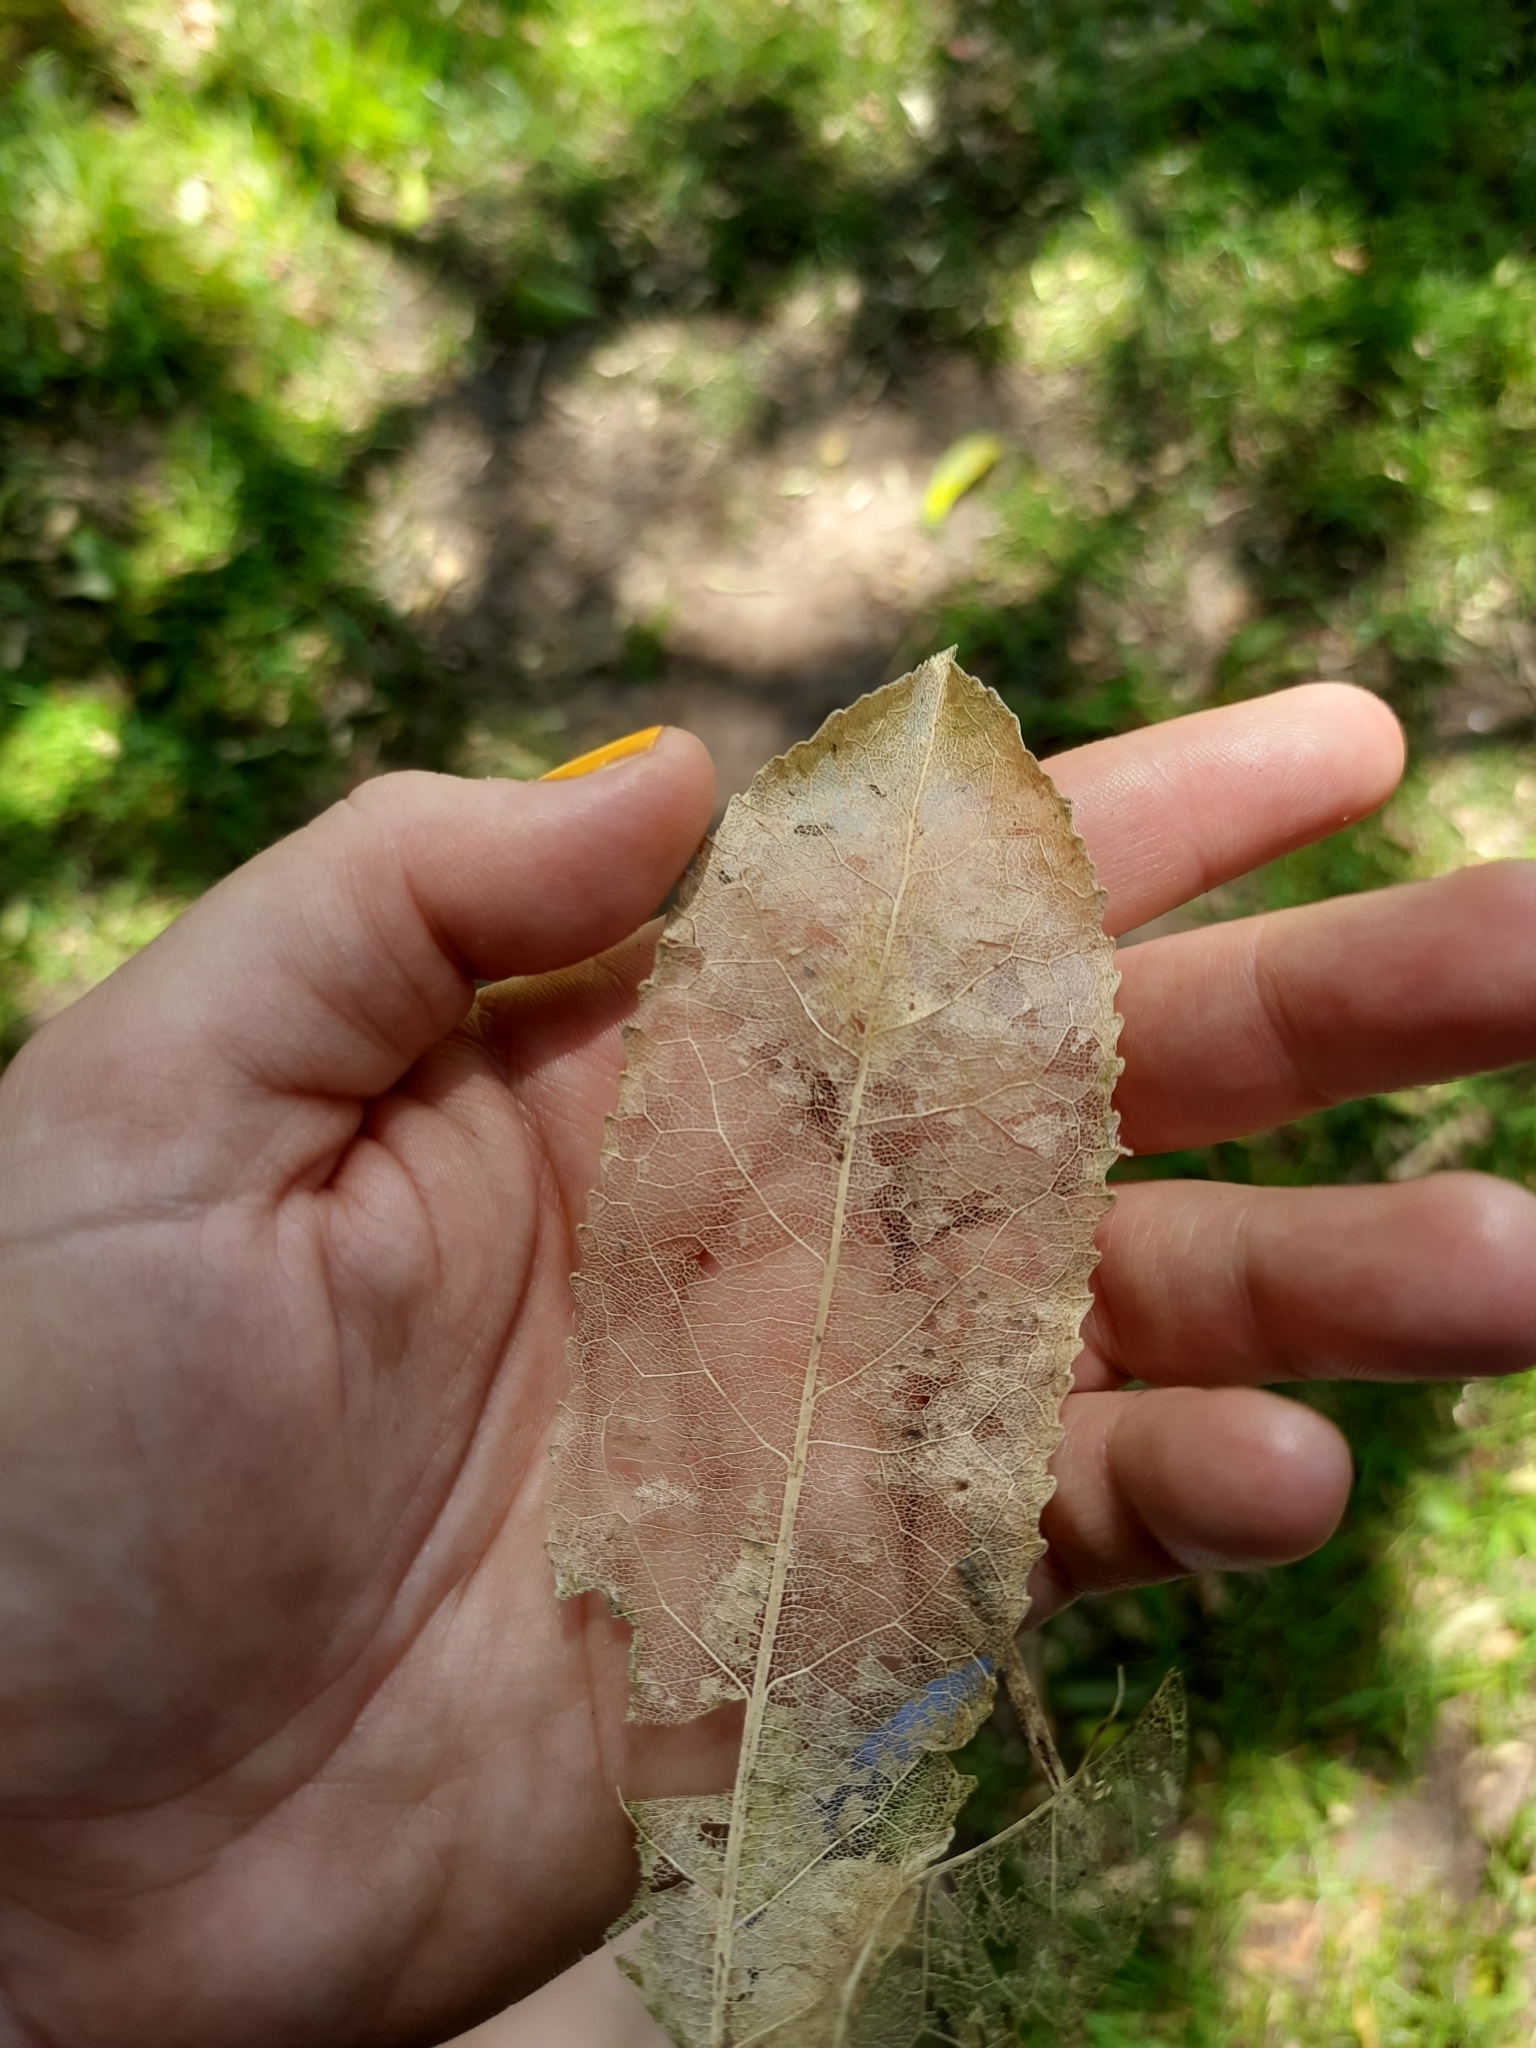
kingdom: Plantae
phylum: Tracheophyta
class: Magnoliopsida
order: Malpighiales
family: Violaceae
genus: Melicytus
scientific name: Melicytus ramiflorus
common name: Mahoe
